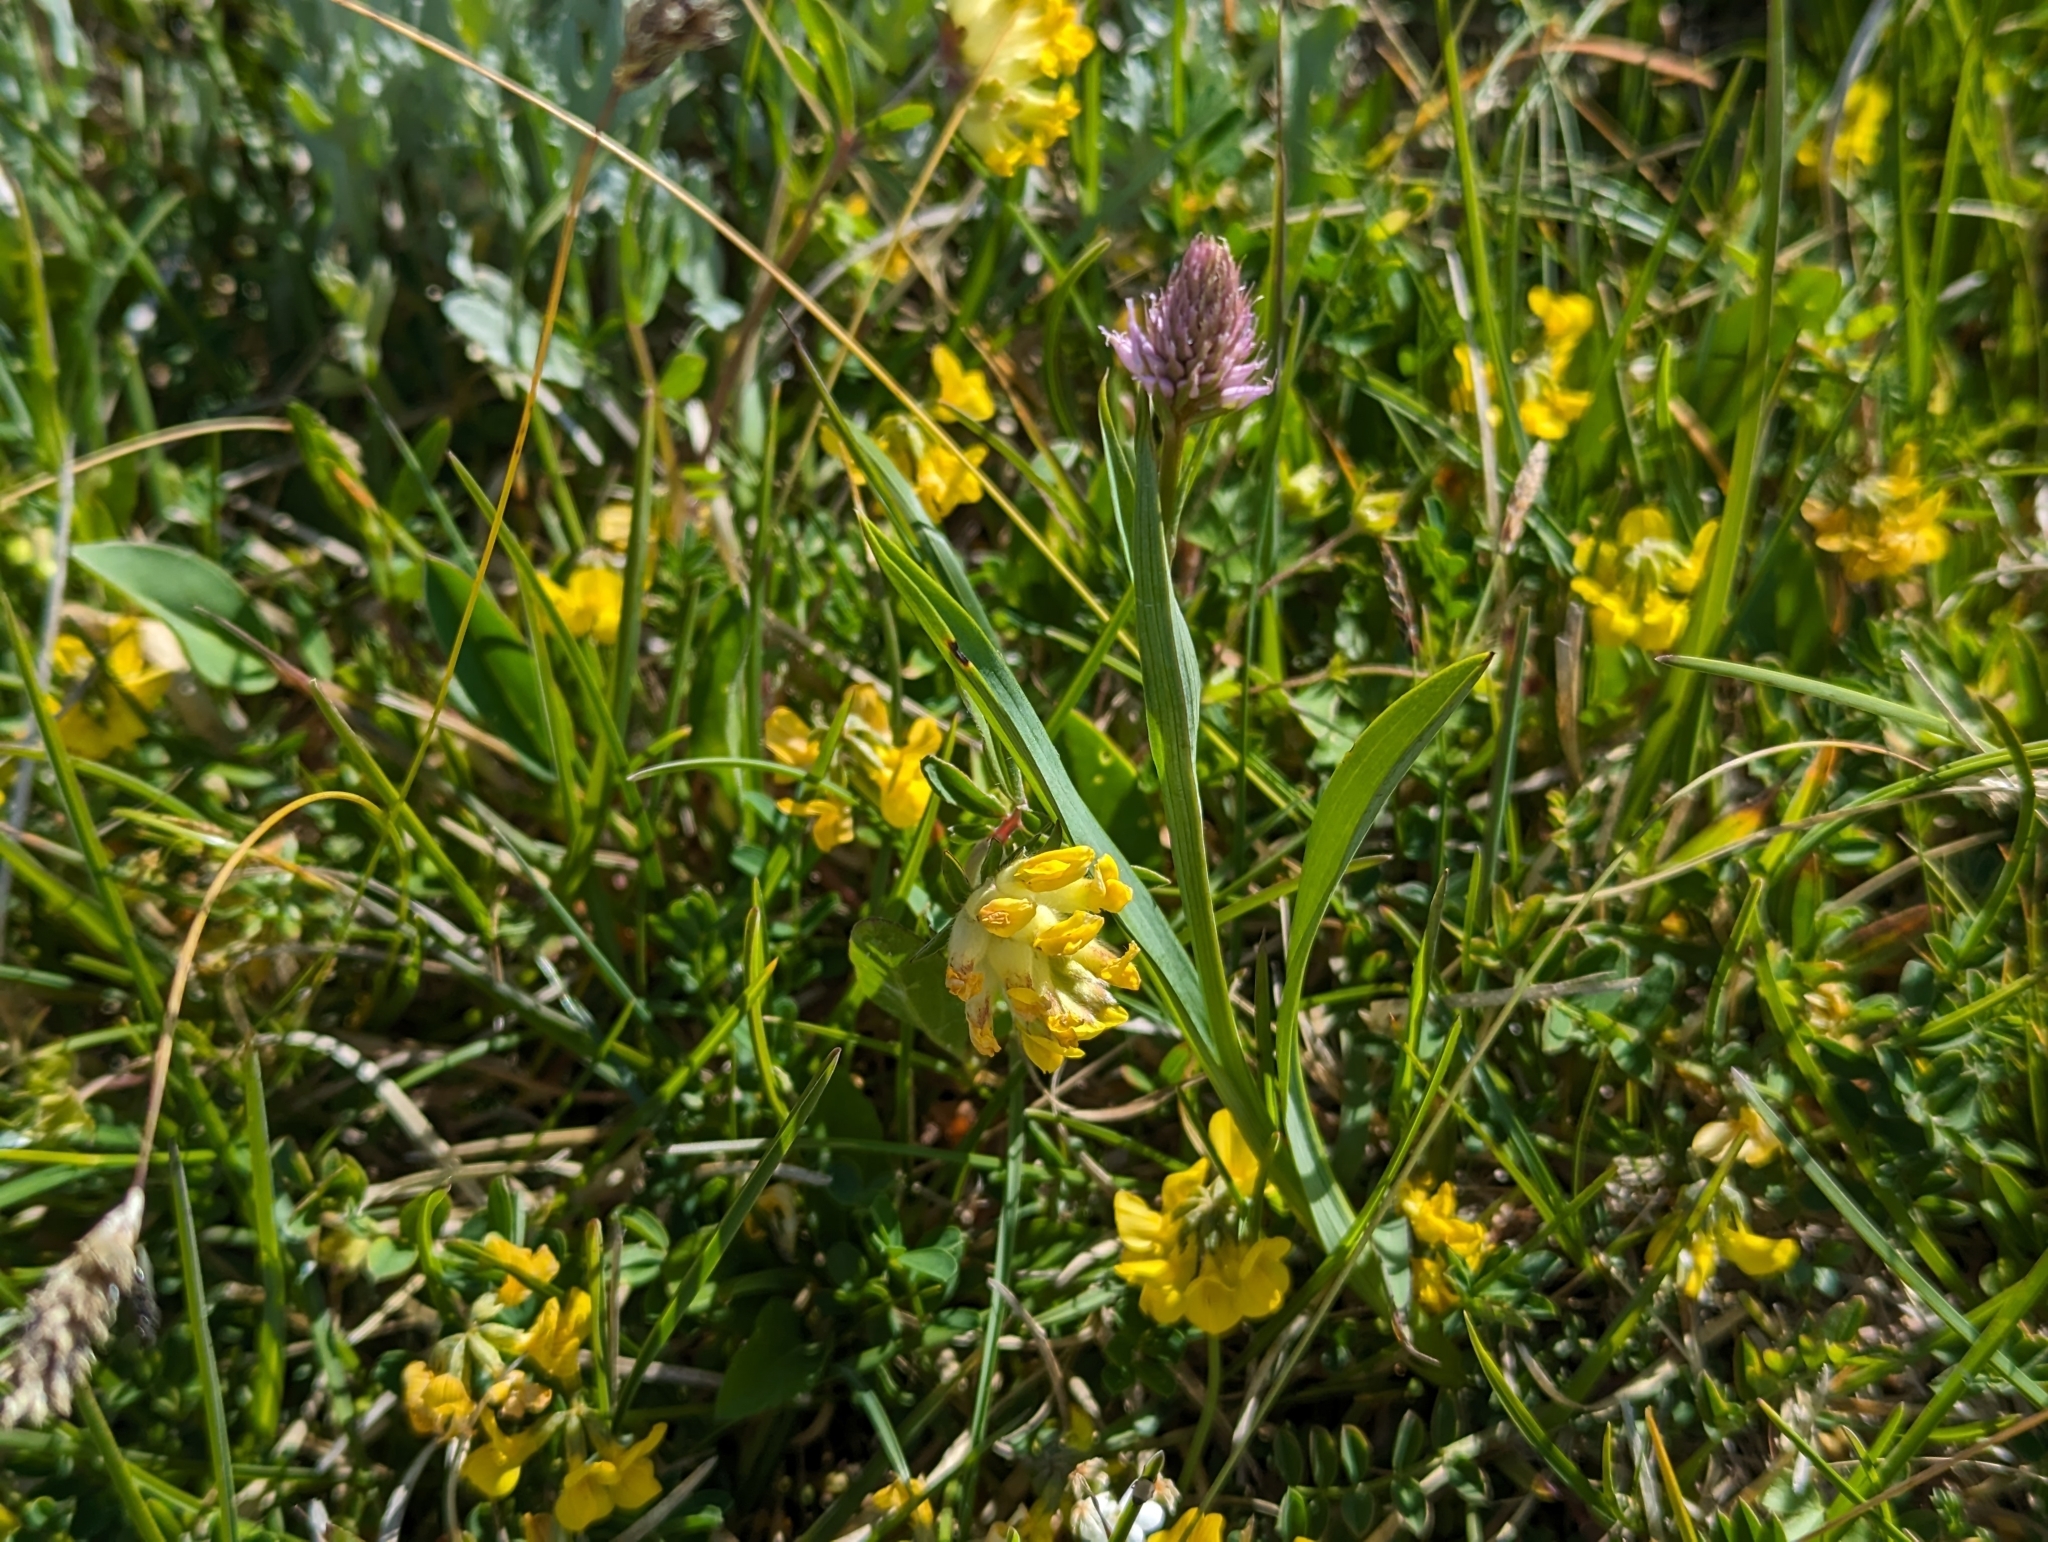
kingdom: Plantae
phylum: Tracheophyta
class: Liliopsida
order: Asparagales
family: Orchidaceae
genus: Traunsteinera
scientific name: Traunsteinera globosa
